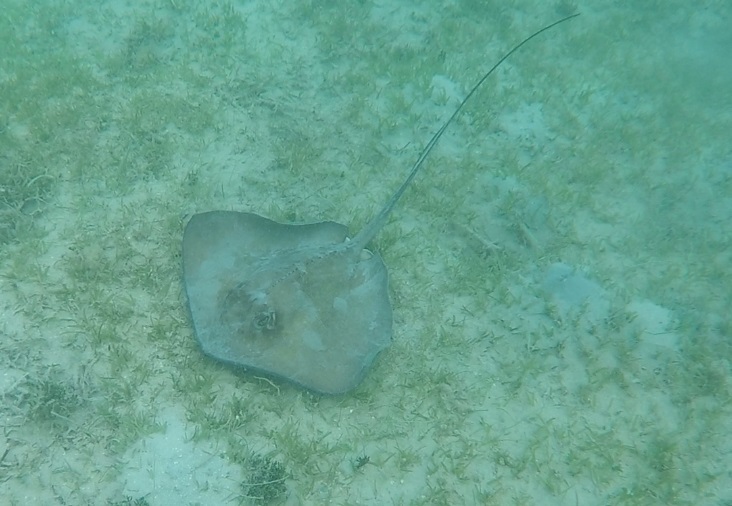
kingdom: Animalia
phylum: Chordata
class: Elasmobranchii
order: Myliobatiformes
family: Dasyatidae
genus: Hypanus
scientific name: Hypanus americanus
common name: Southern stingray
